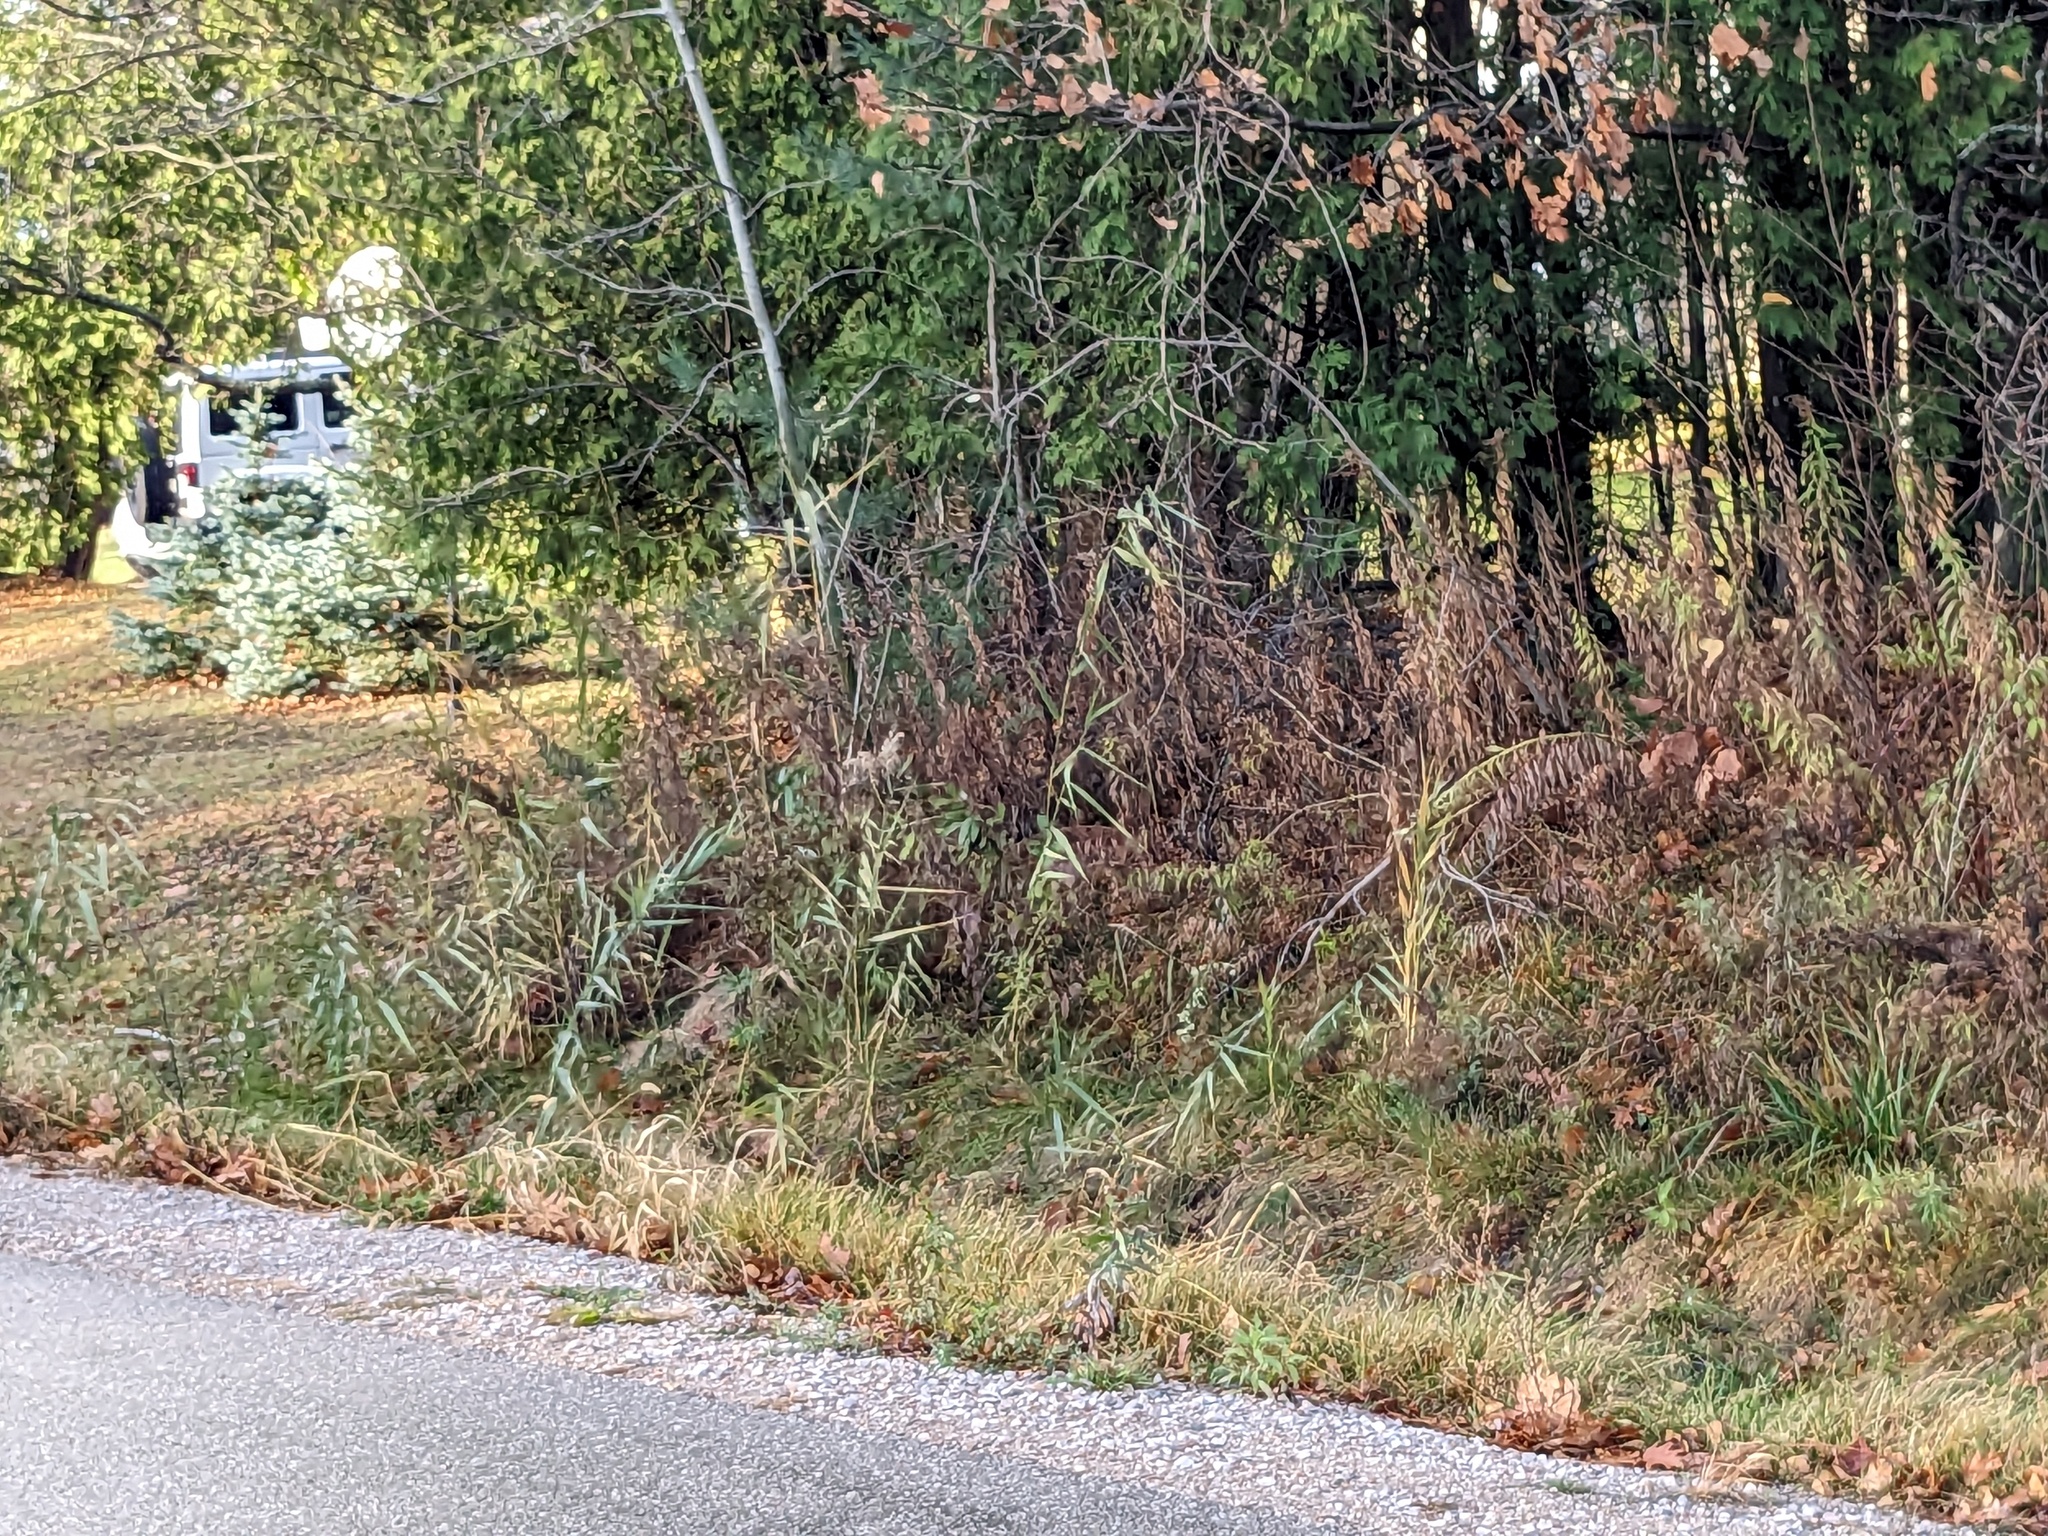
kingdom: Plantae
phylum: Tracheophyta
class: Liliopsida
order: Poales
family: Poaceae
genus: Phragmites
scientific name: Phragmites australis
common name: Common reed
